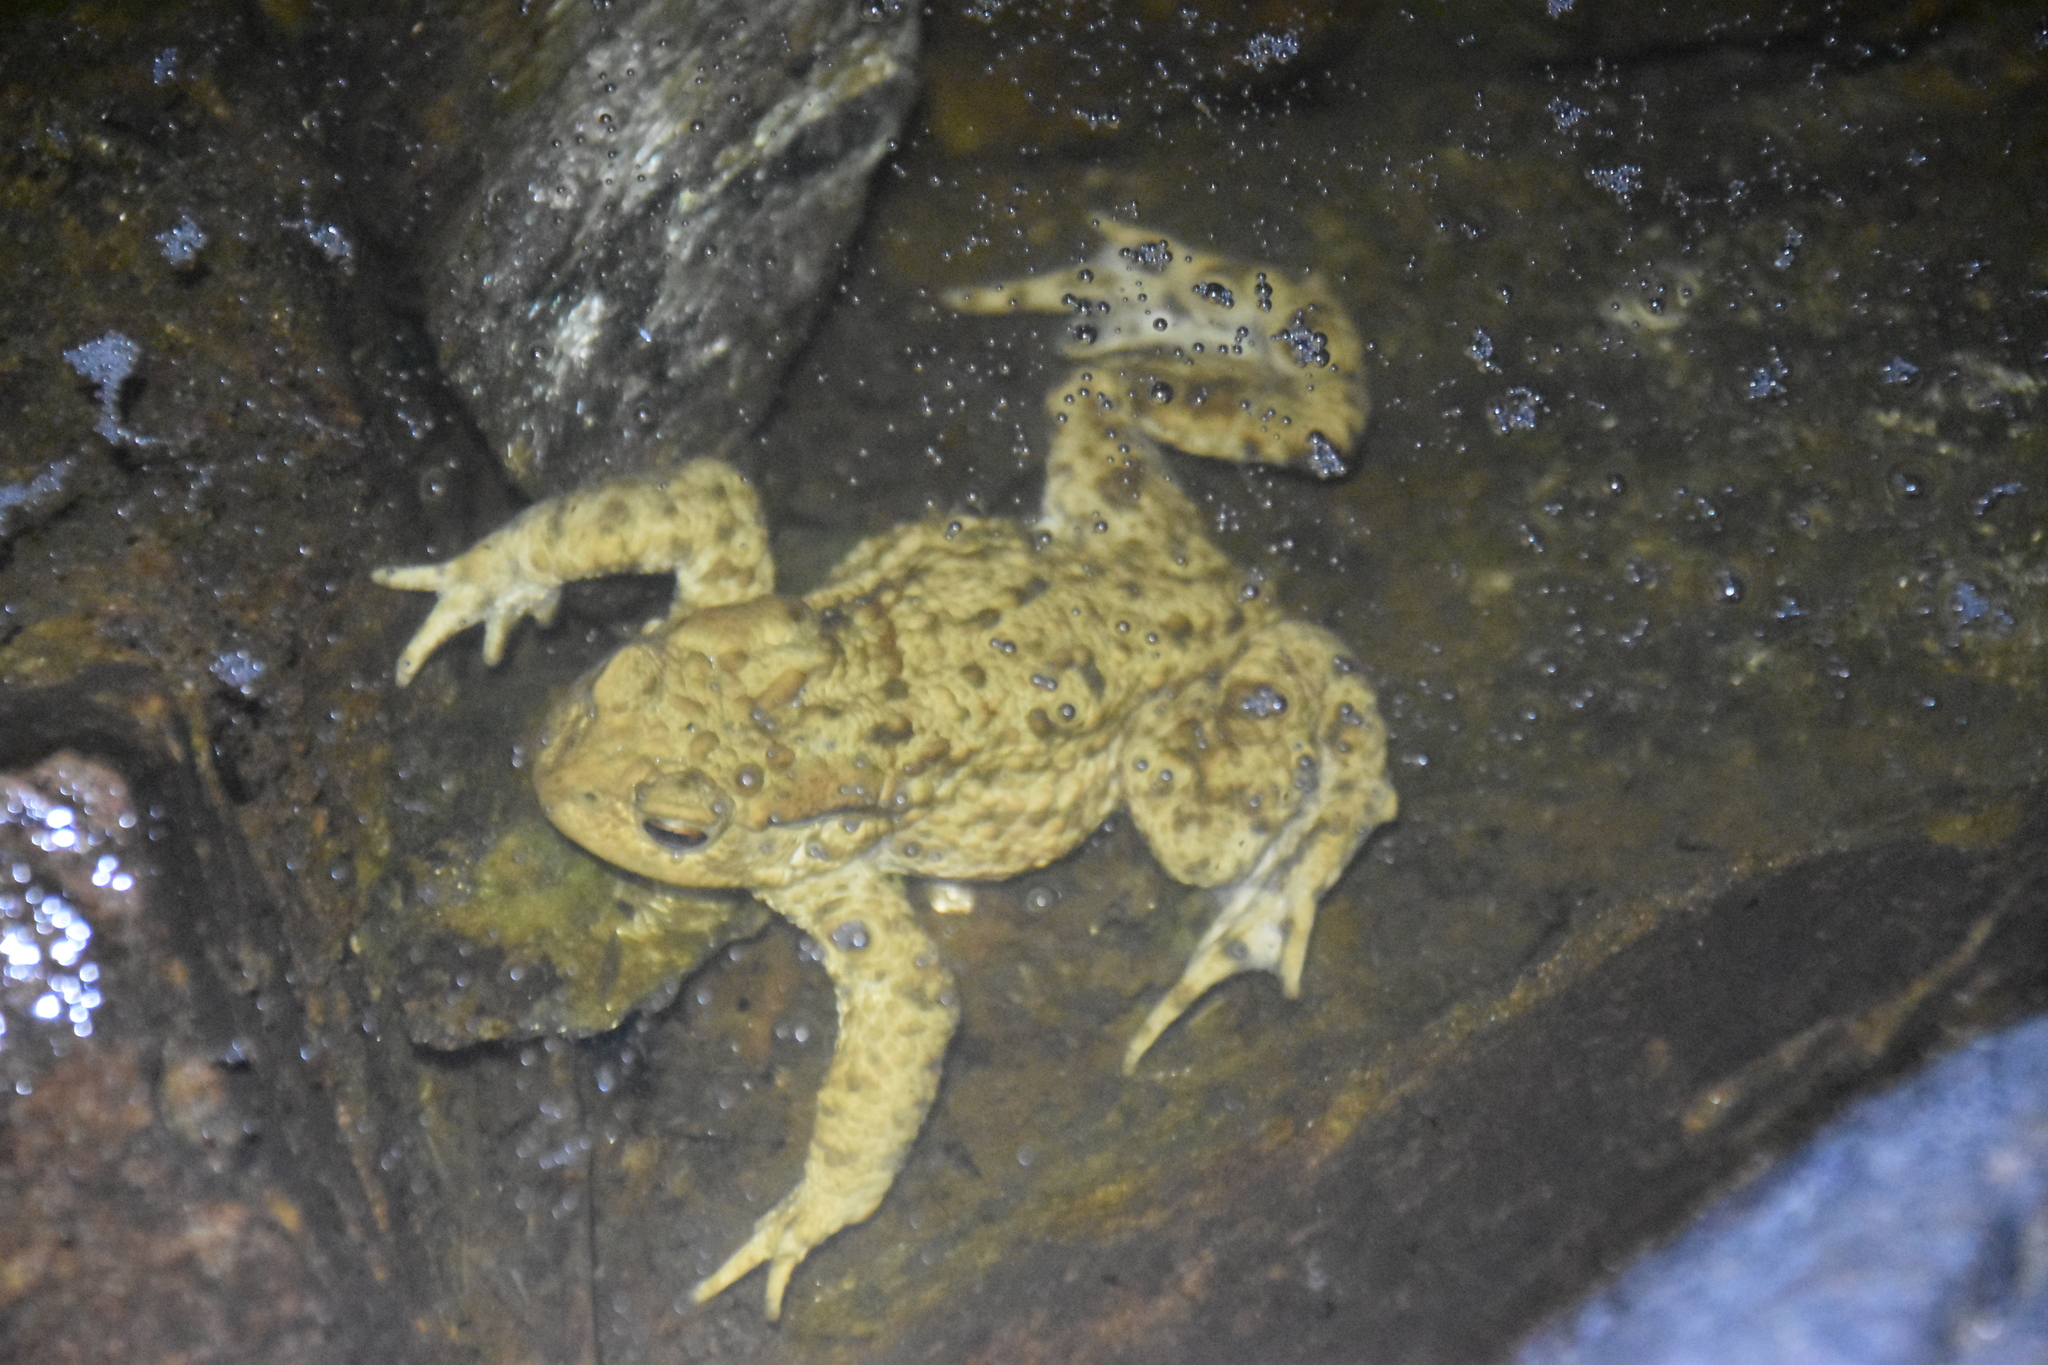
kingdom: Animalia
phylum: Chordata
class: Amphibia
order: Anura
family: Bufonidae
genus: Bufo
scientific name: Bufo bufo
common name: Common toad
